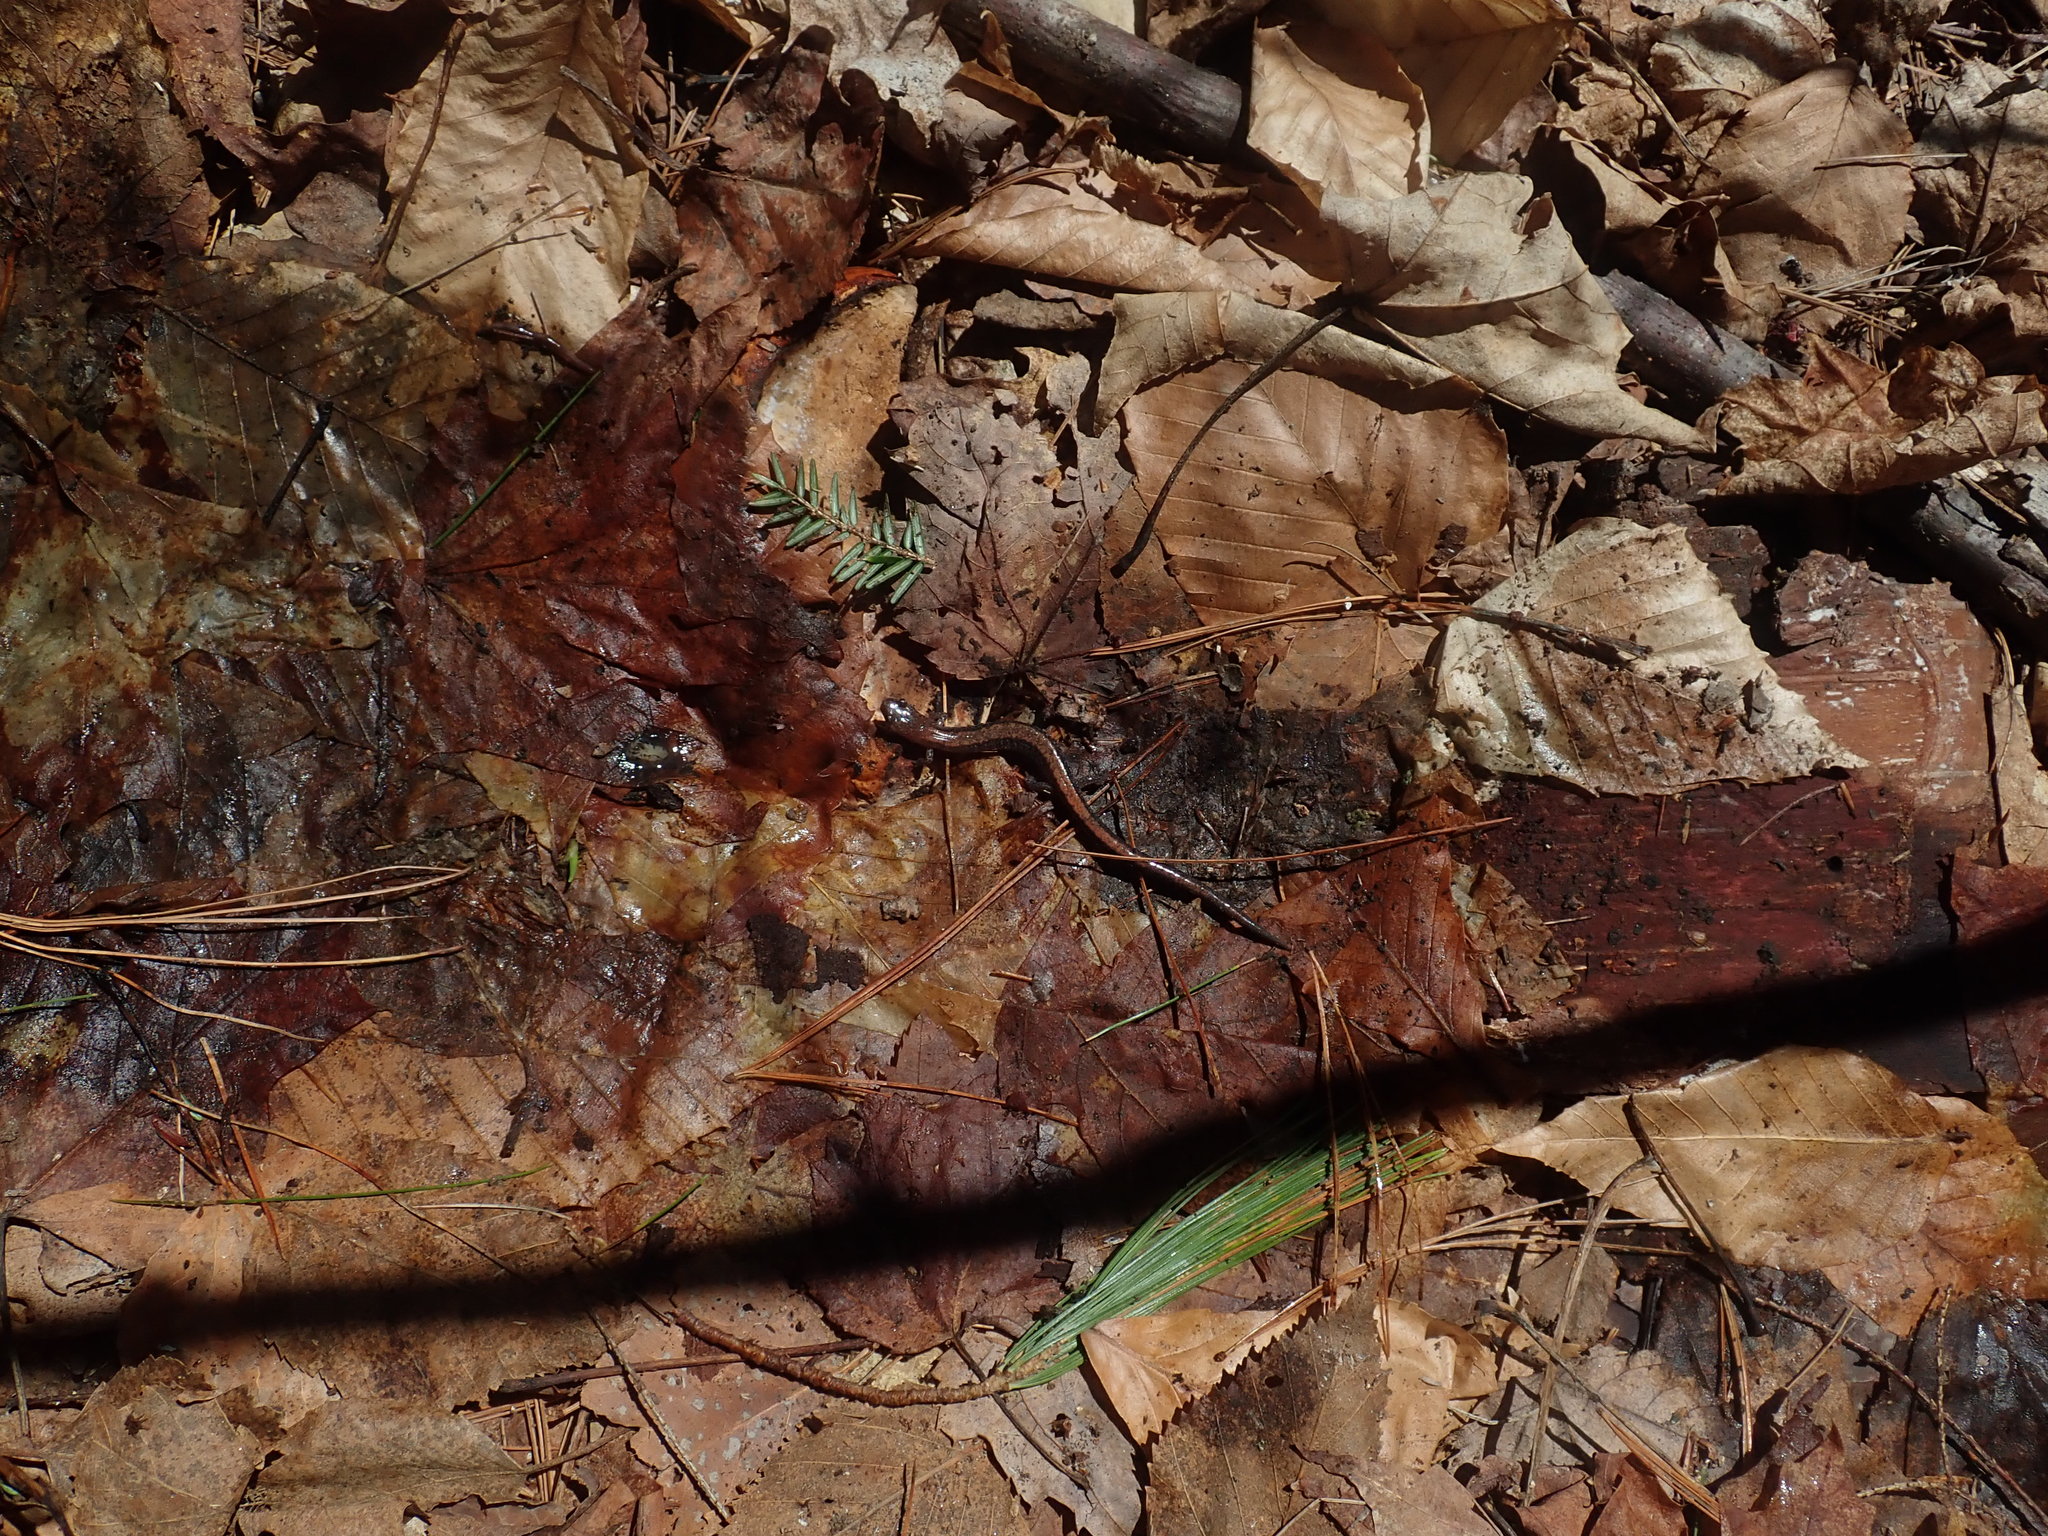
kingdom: Animalia
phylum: Chordata
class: Amphibia
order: Caudata
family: Plethodontidae
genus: Plethodon
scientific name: Plethodon cinereus
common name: Redback salamander
